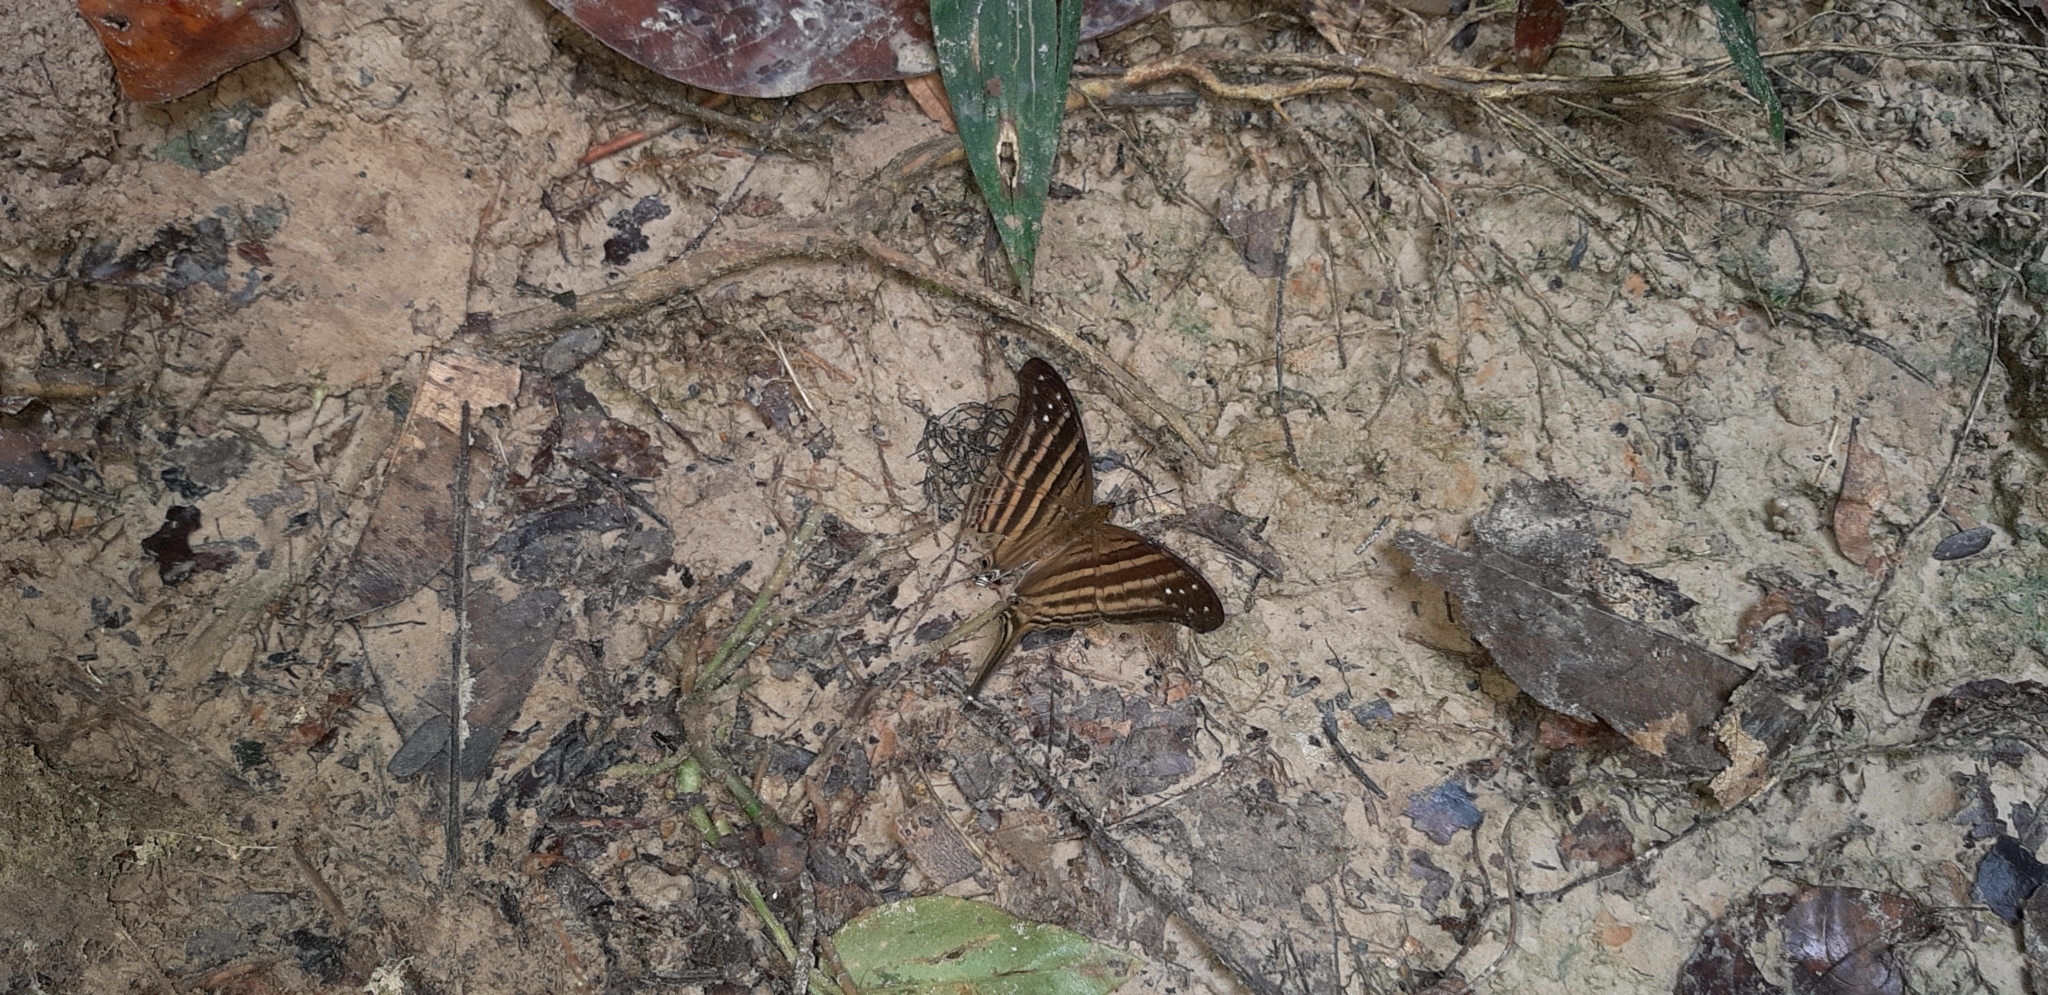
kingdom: Animalia
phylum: Arthropoda
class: Insecta
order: Lepidoptera
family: Nymphalidae
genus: Marpesia
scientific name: Marpesia chiron
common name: Many-banded daggerwing
